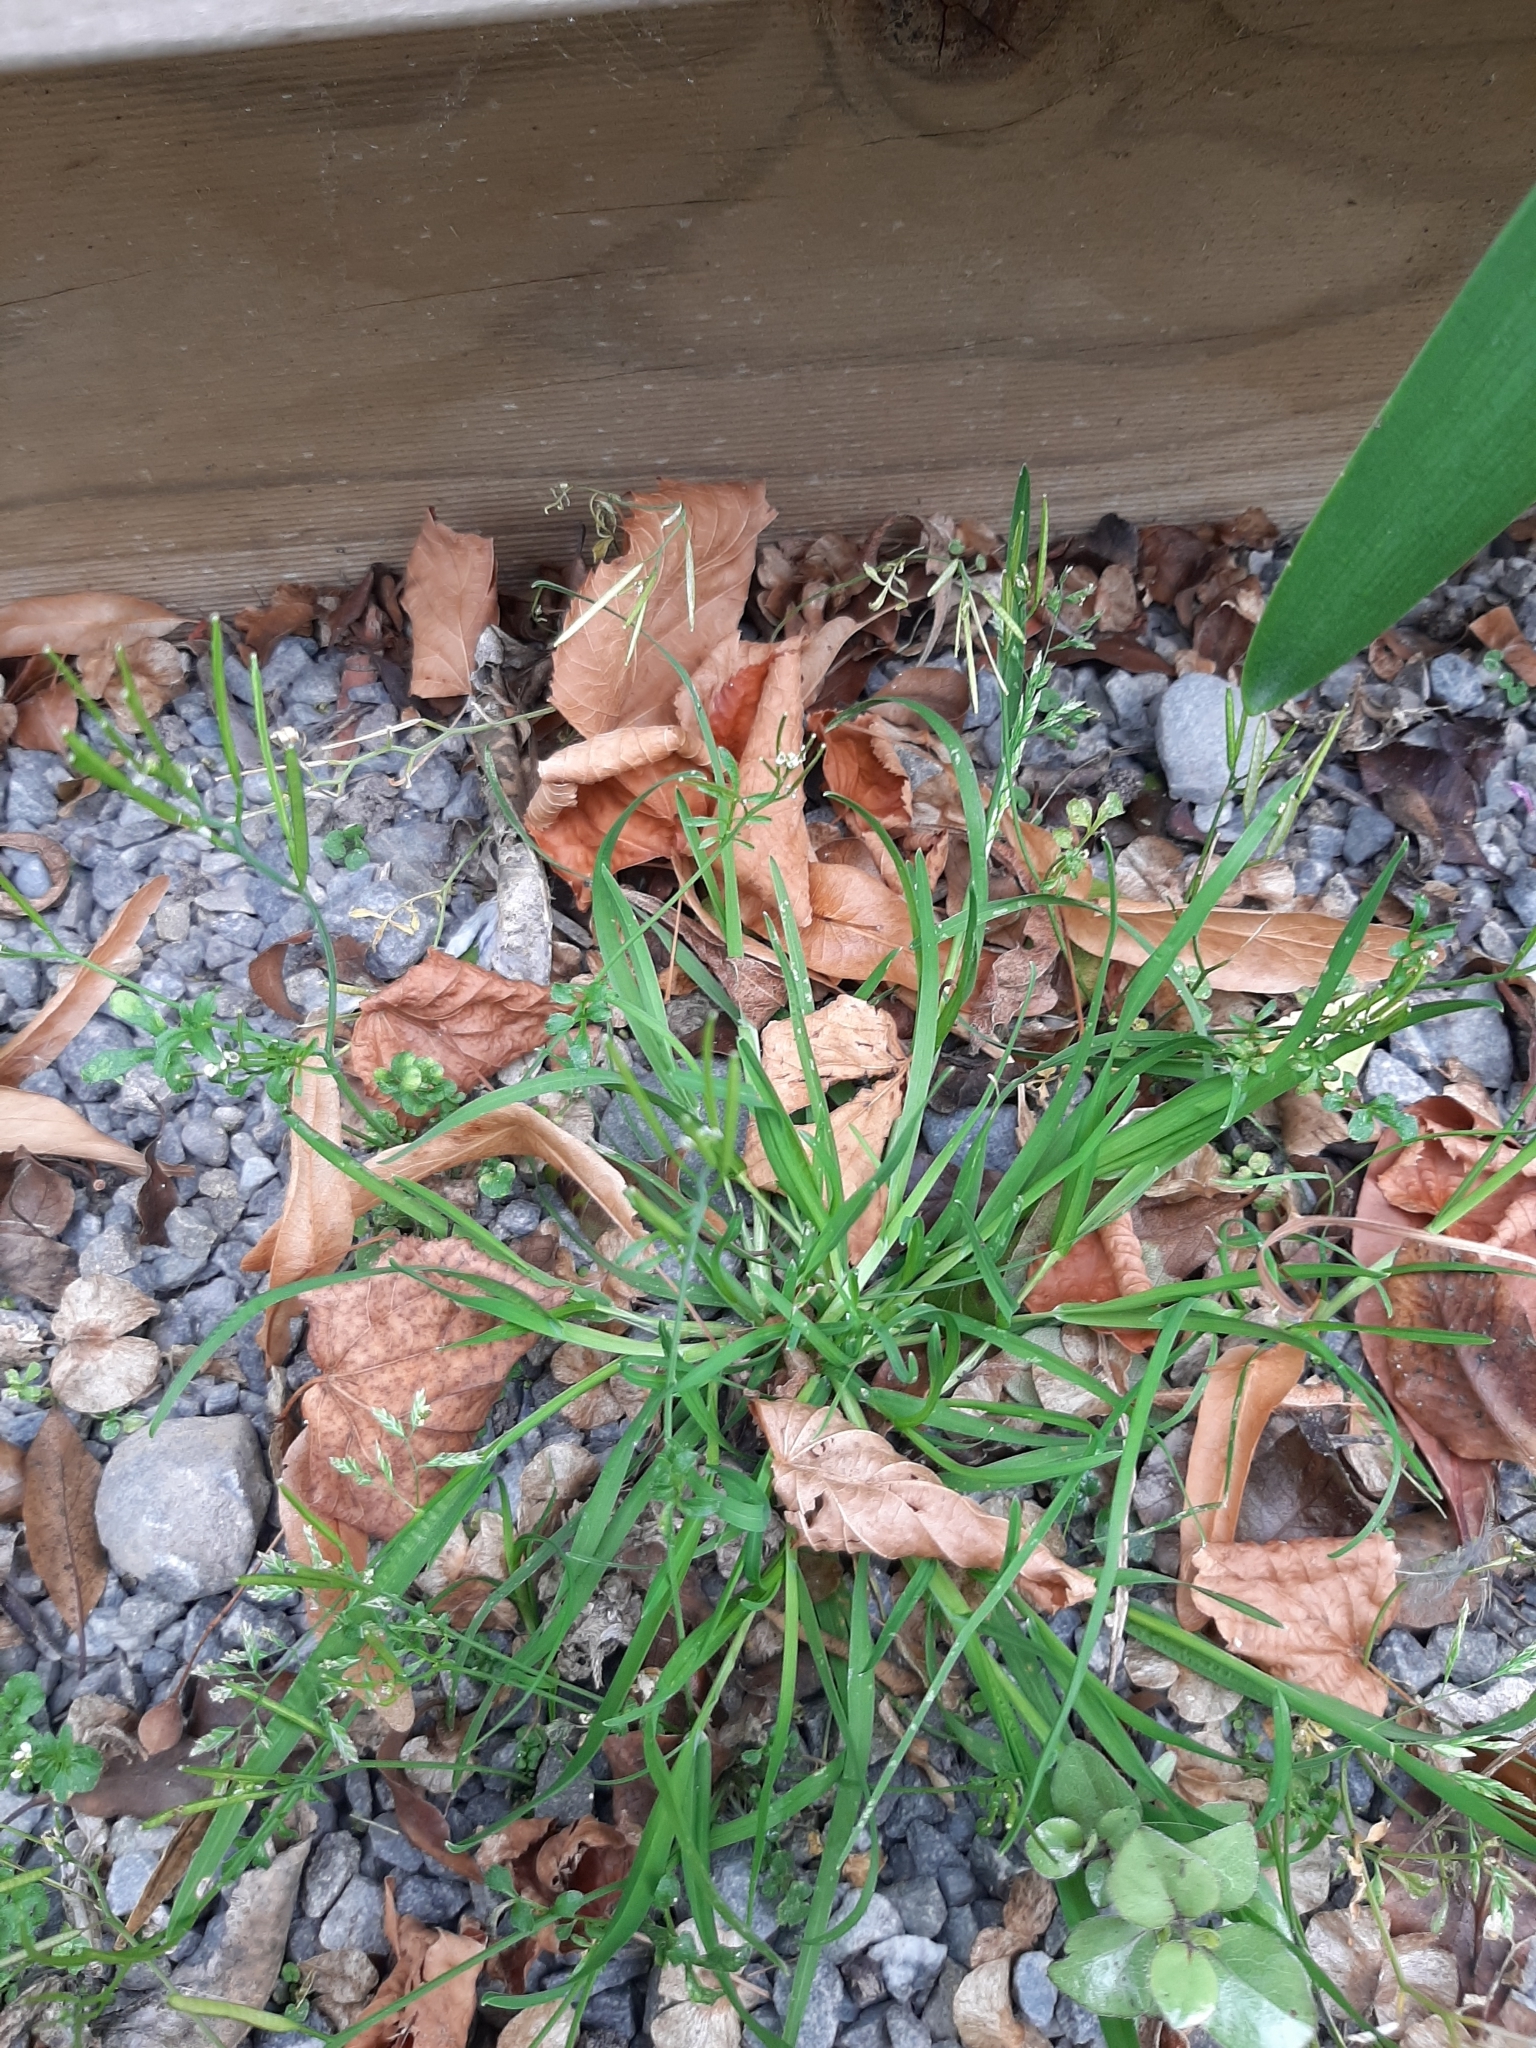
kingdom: Plantae
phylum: Tracheophyta
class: Liliopsida
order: Poales
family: Poaceae
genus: Poa
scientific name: Poa annua
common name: Annual bluegrass
